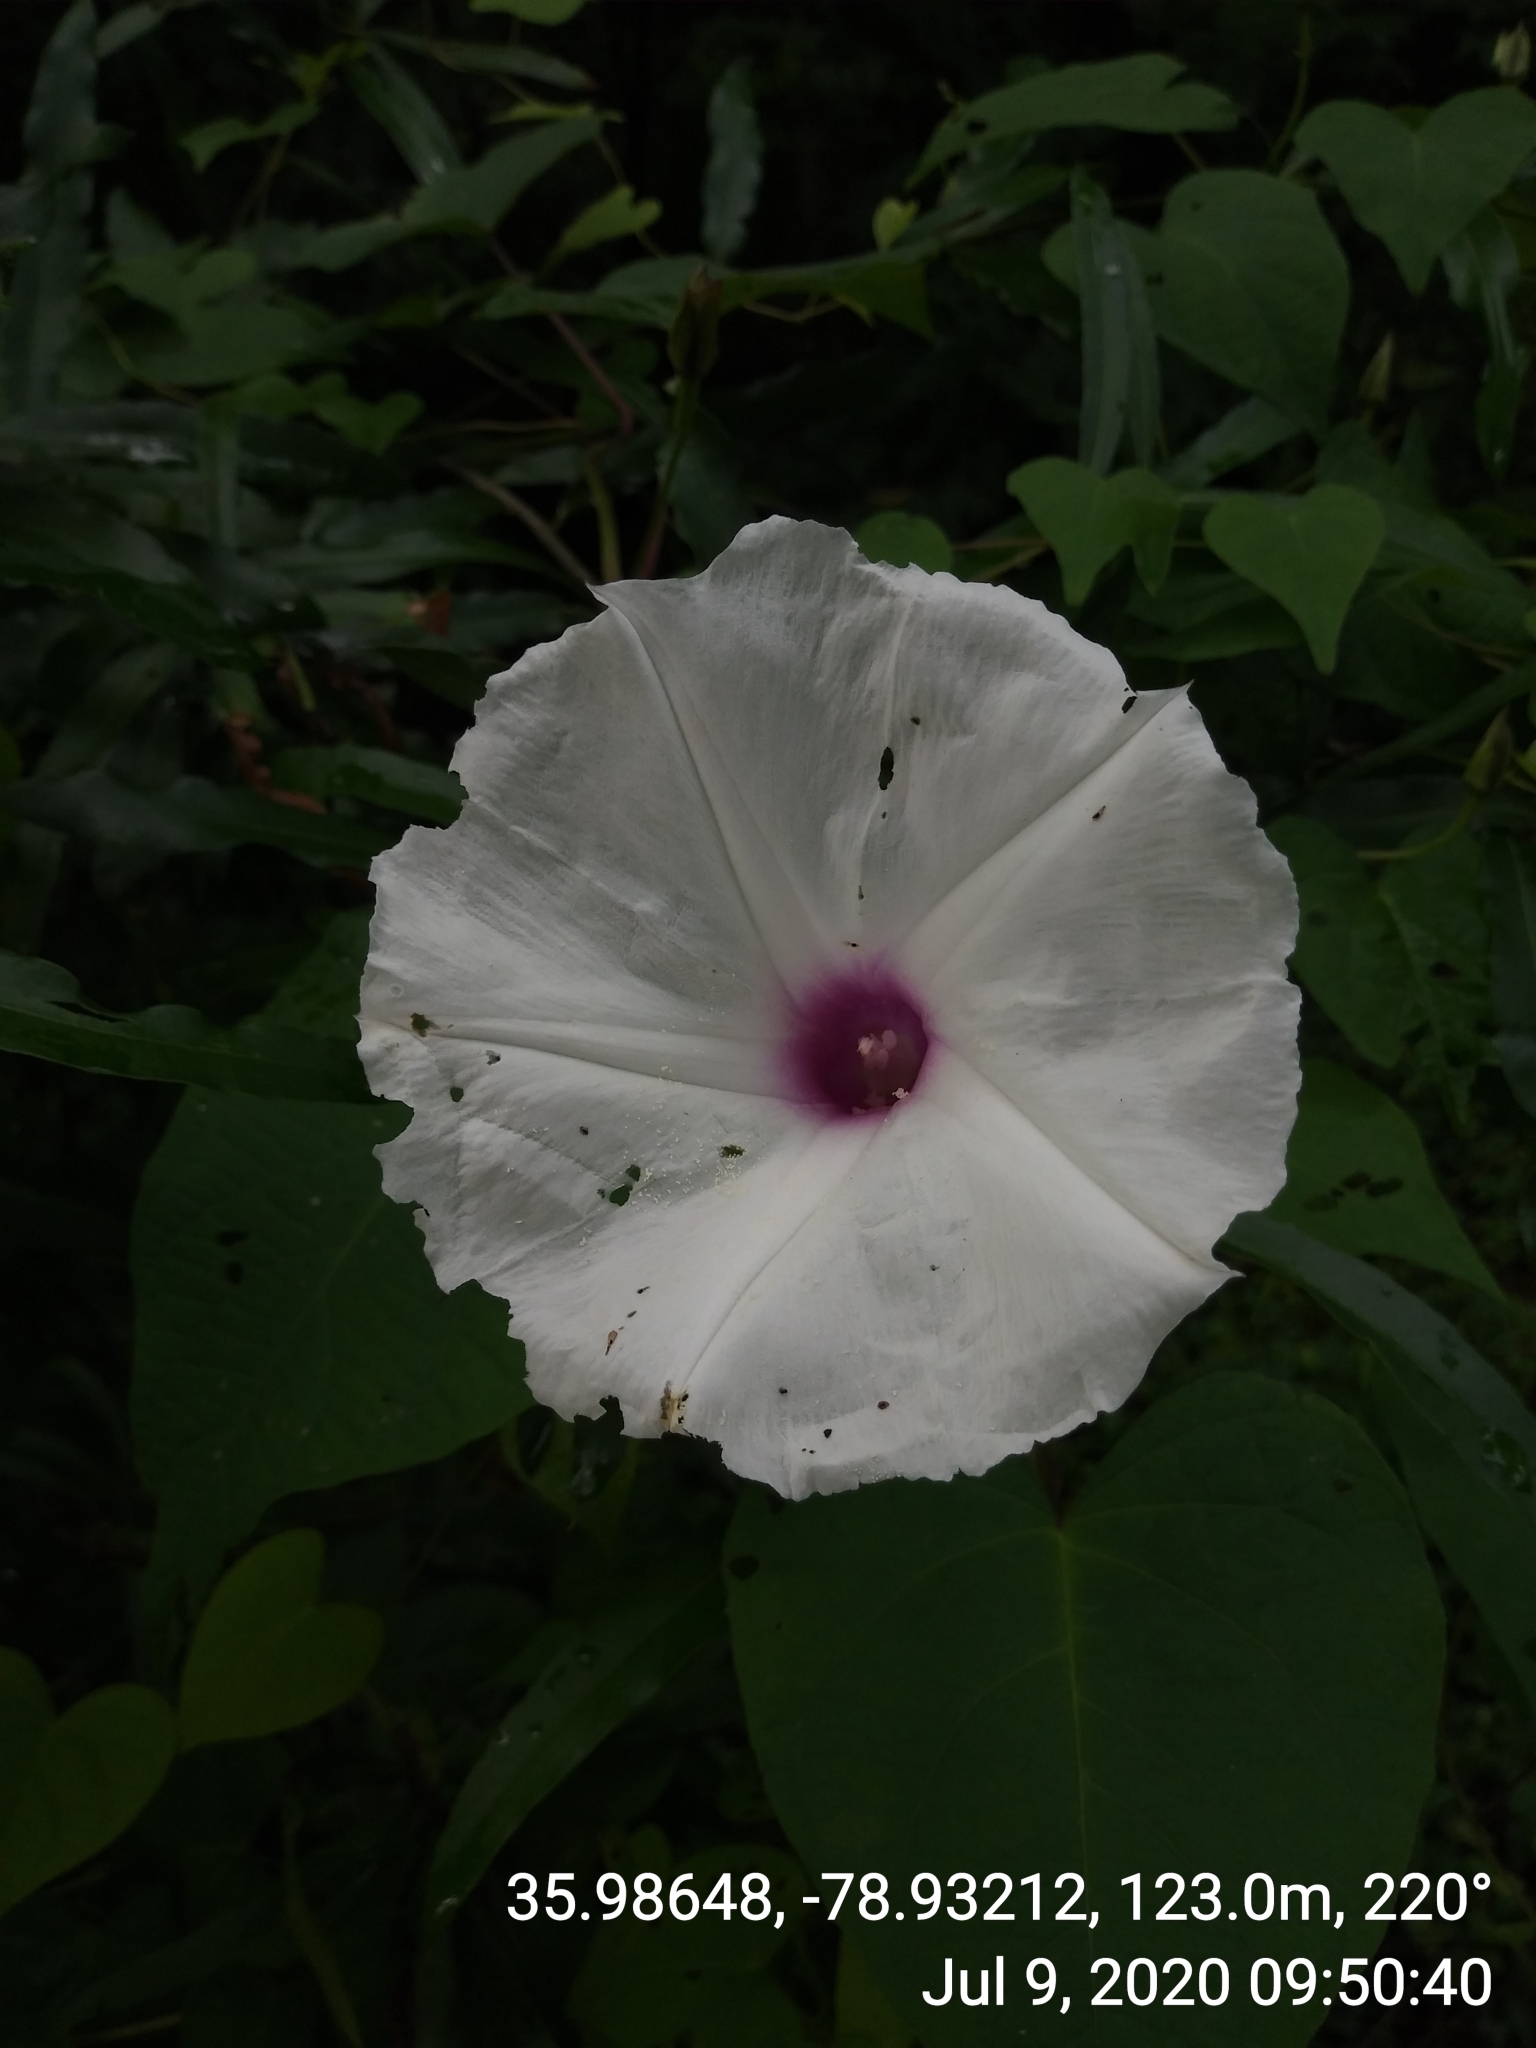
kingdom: Plantae
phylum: Tracheophyta
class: Magnoliopsida
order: Solanales
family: Convolvulaceae
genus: Ipomoea
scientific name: Ipomoea pandurata
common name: Man-of-the-earth
